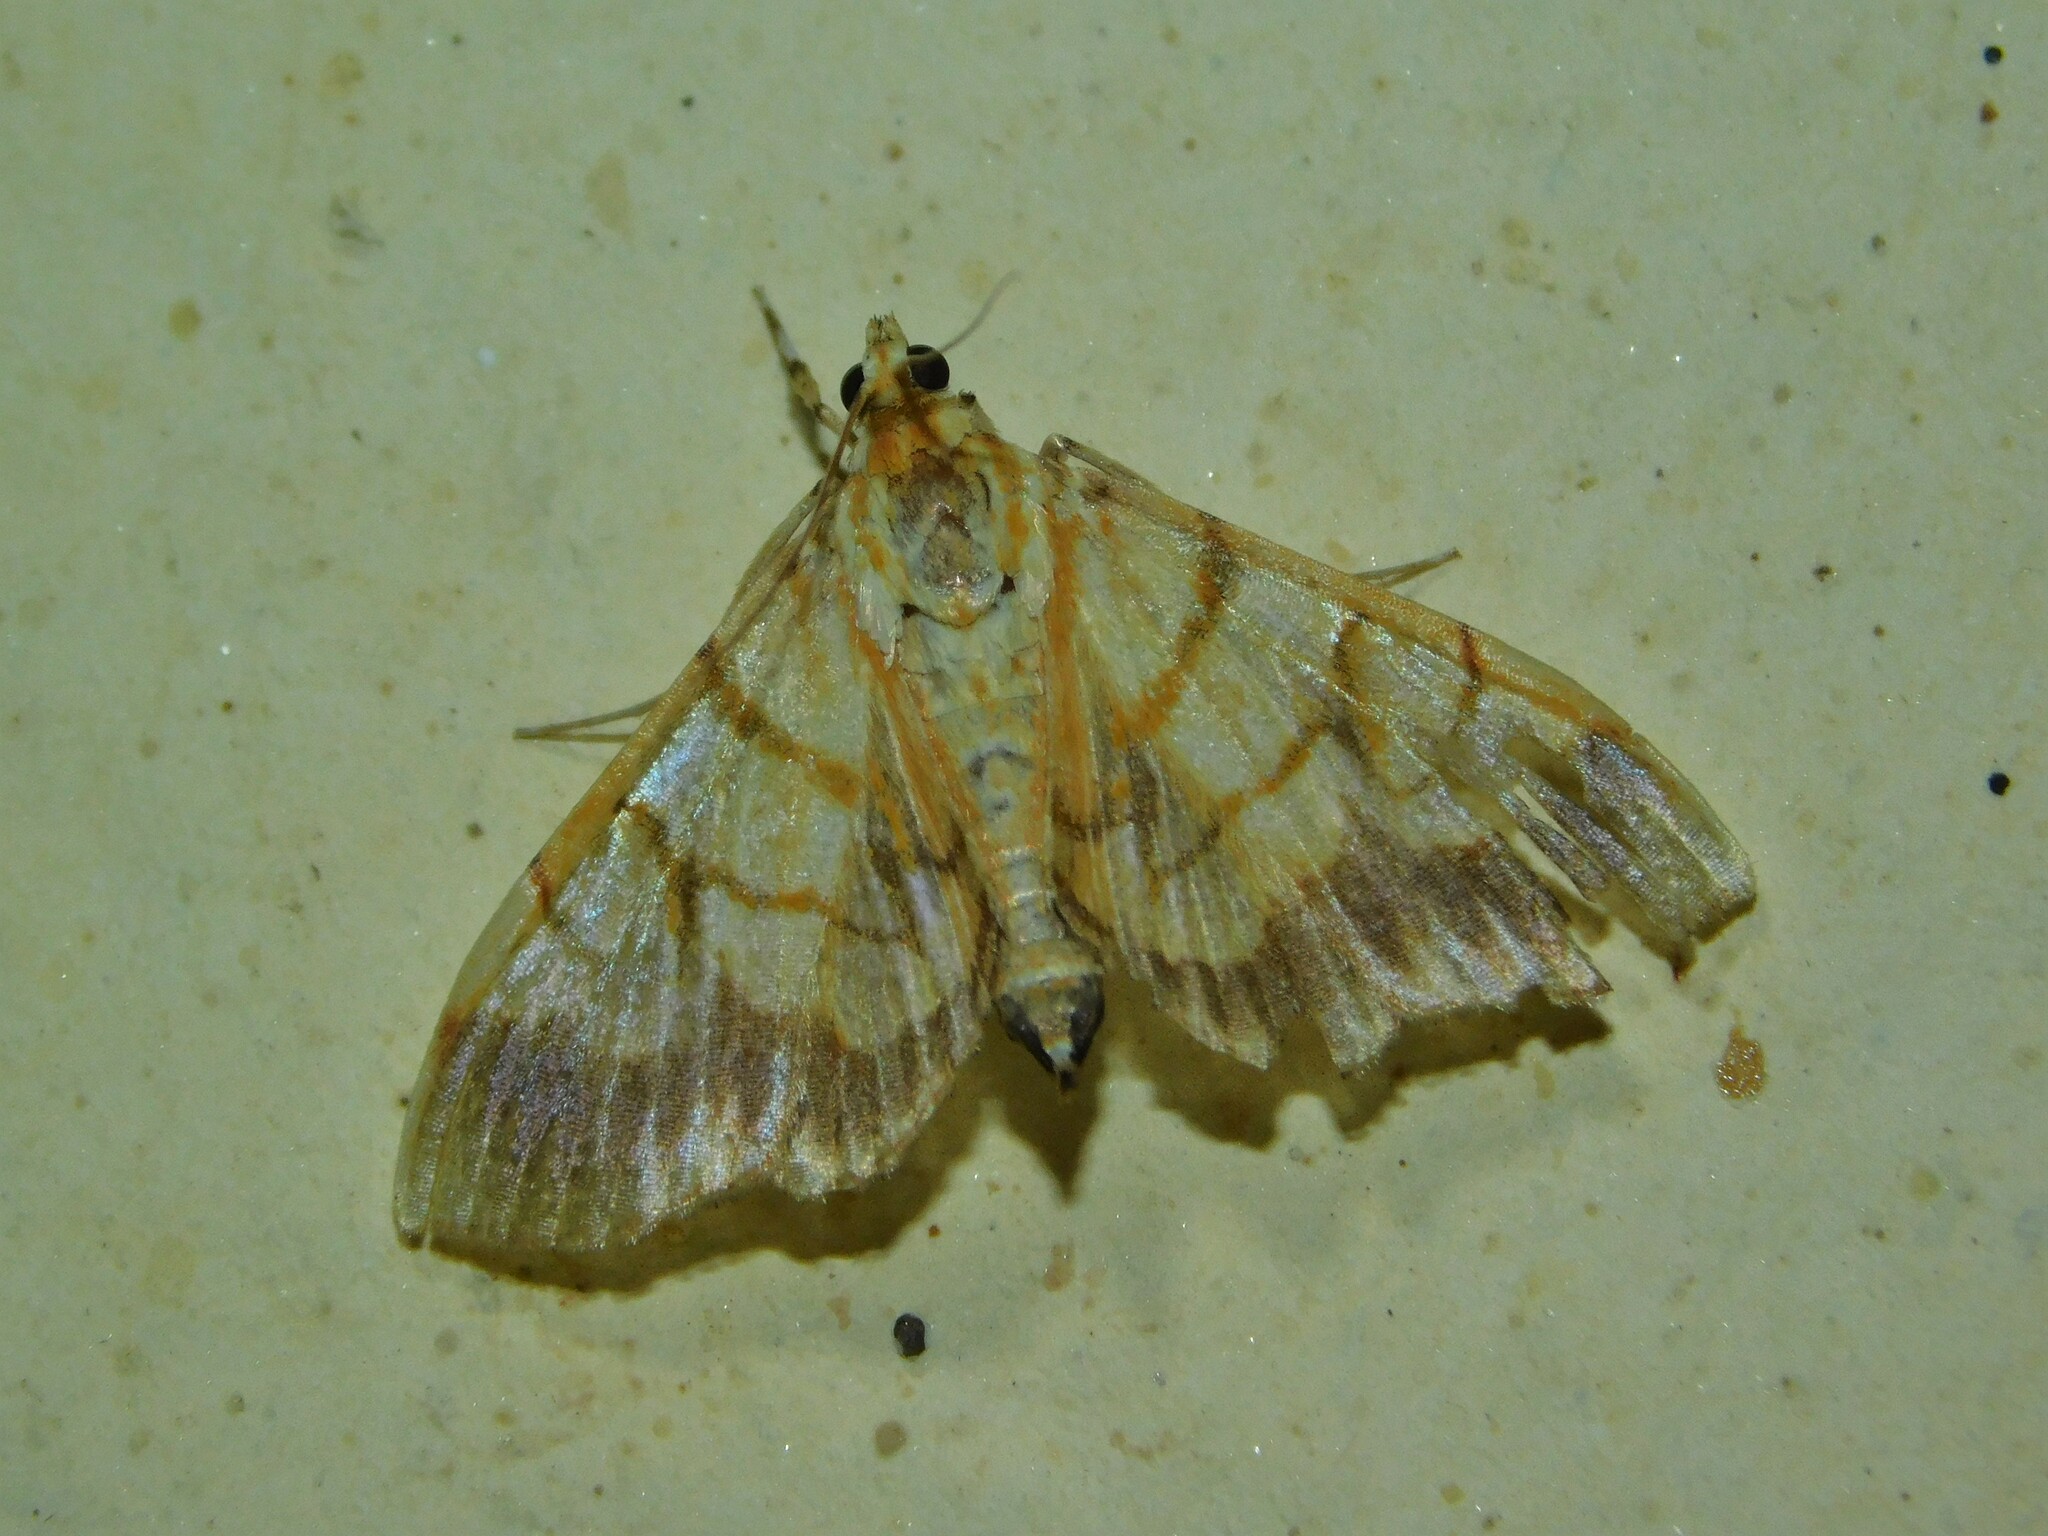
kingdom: Animalia
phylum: Arthropoda
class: Insecta
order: Lepidoptera
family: Crambidae
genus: Cryptosara
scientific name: Cryptosara caritalis
